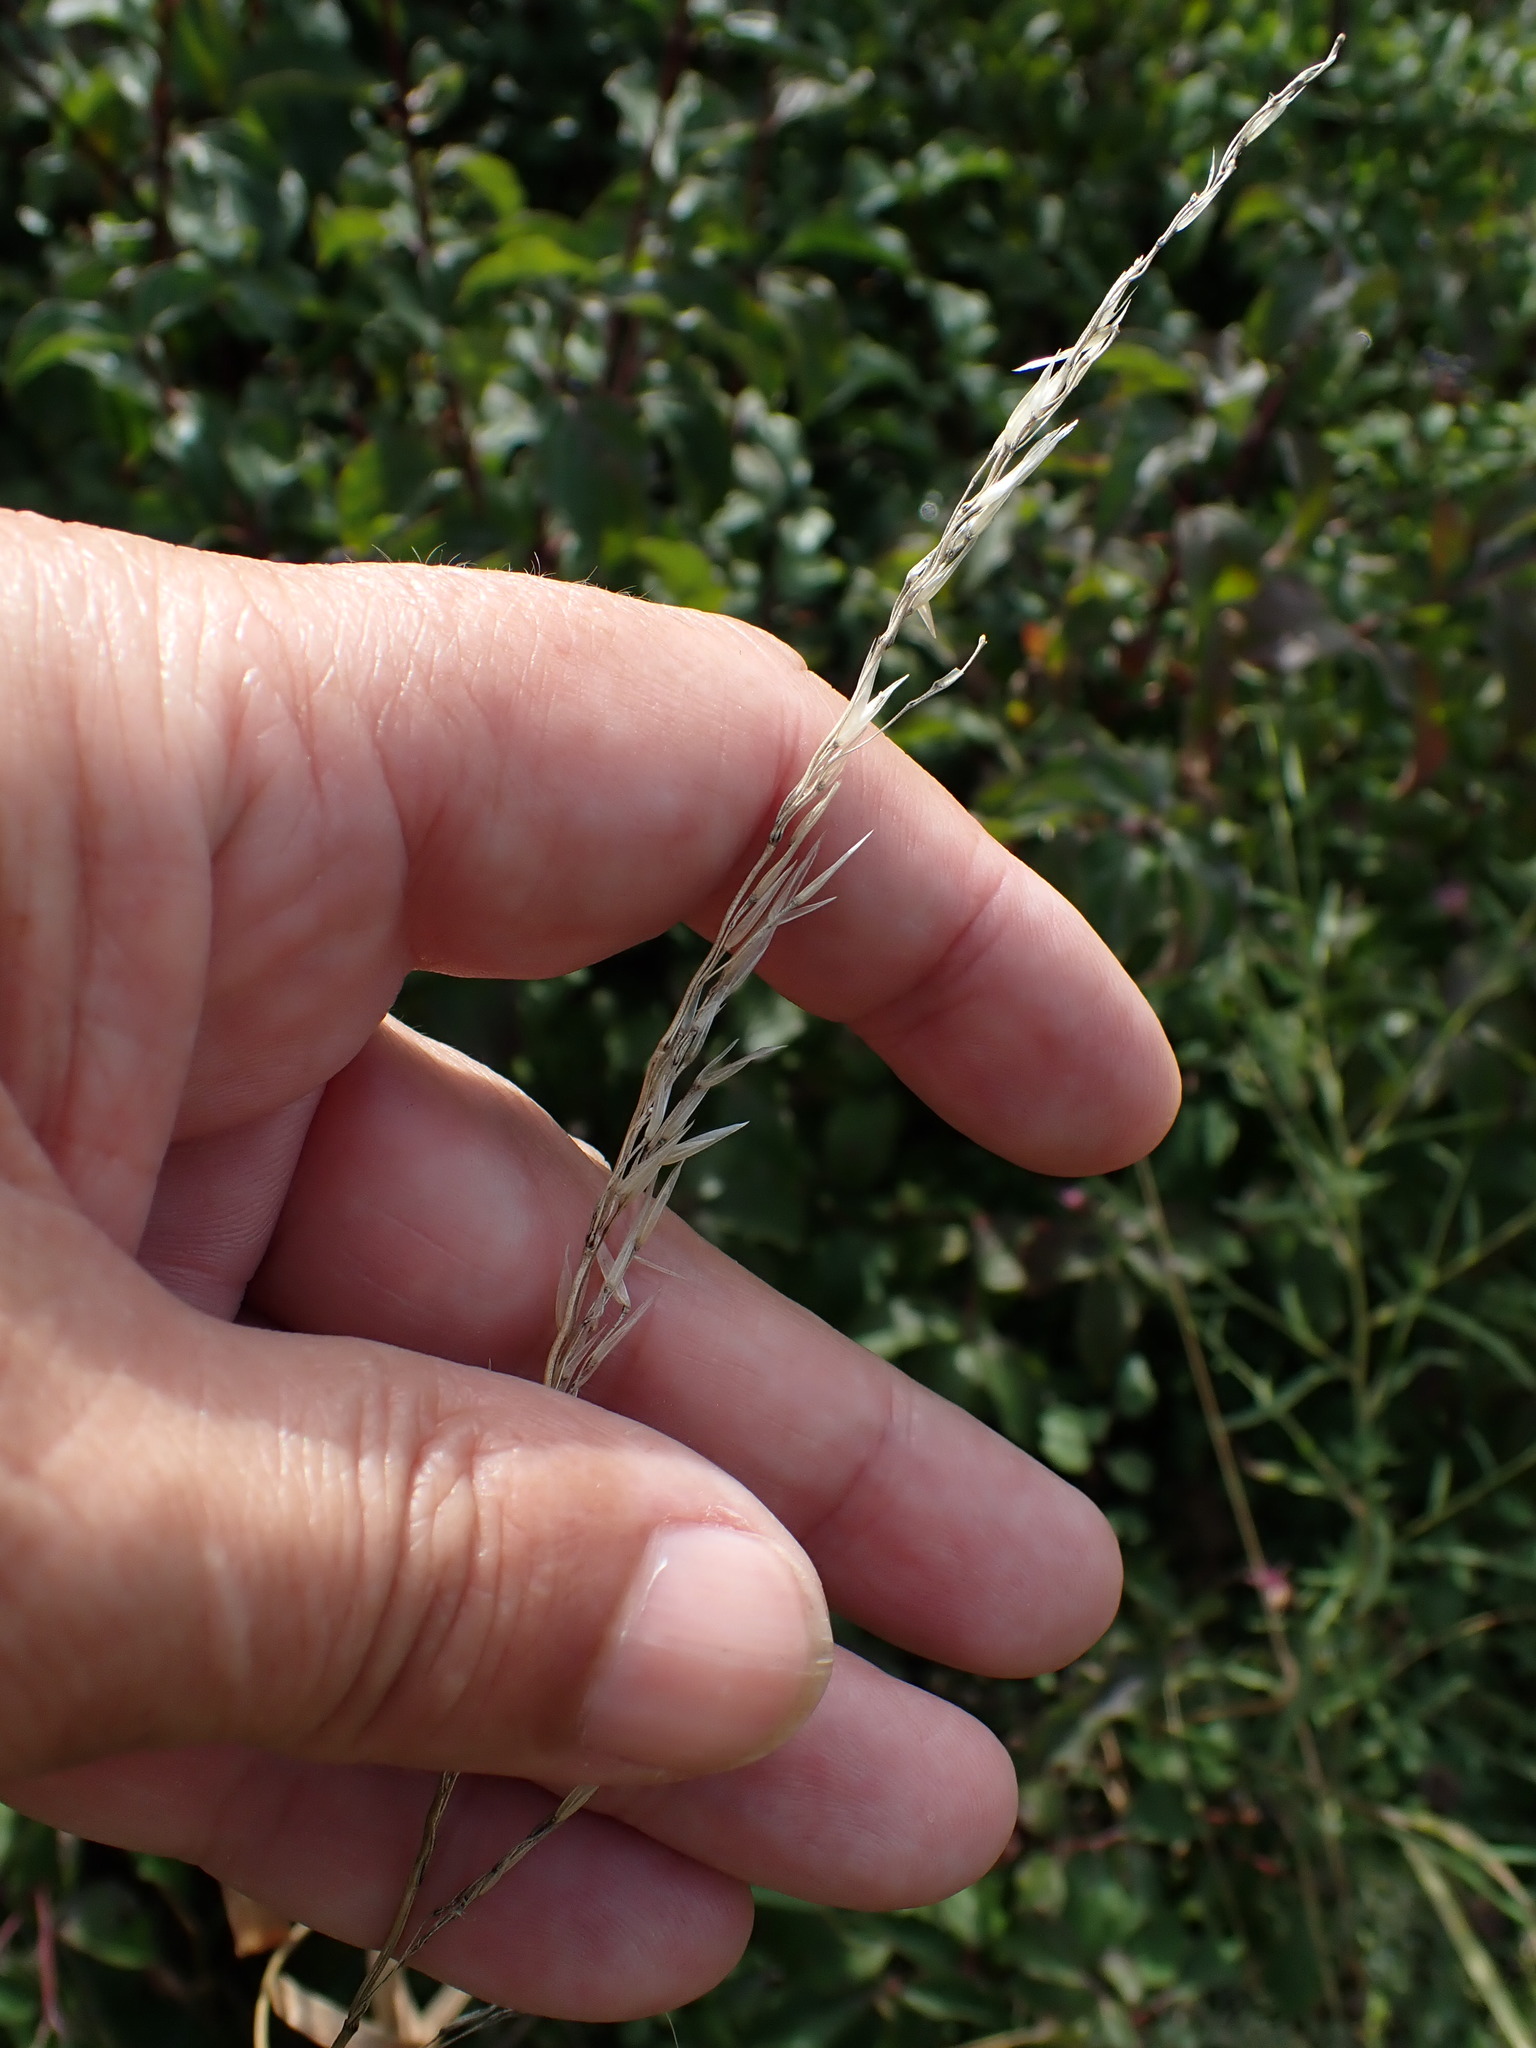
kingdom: Plantae
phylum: Tracheophyta
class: Liliopsida
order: Poales
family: Poaceae
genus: Arrhenatherum
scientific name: Arrhenatherum elatius
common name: Tall oatgrass
